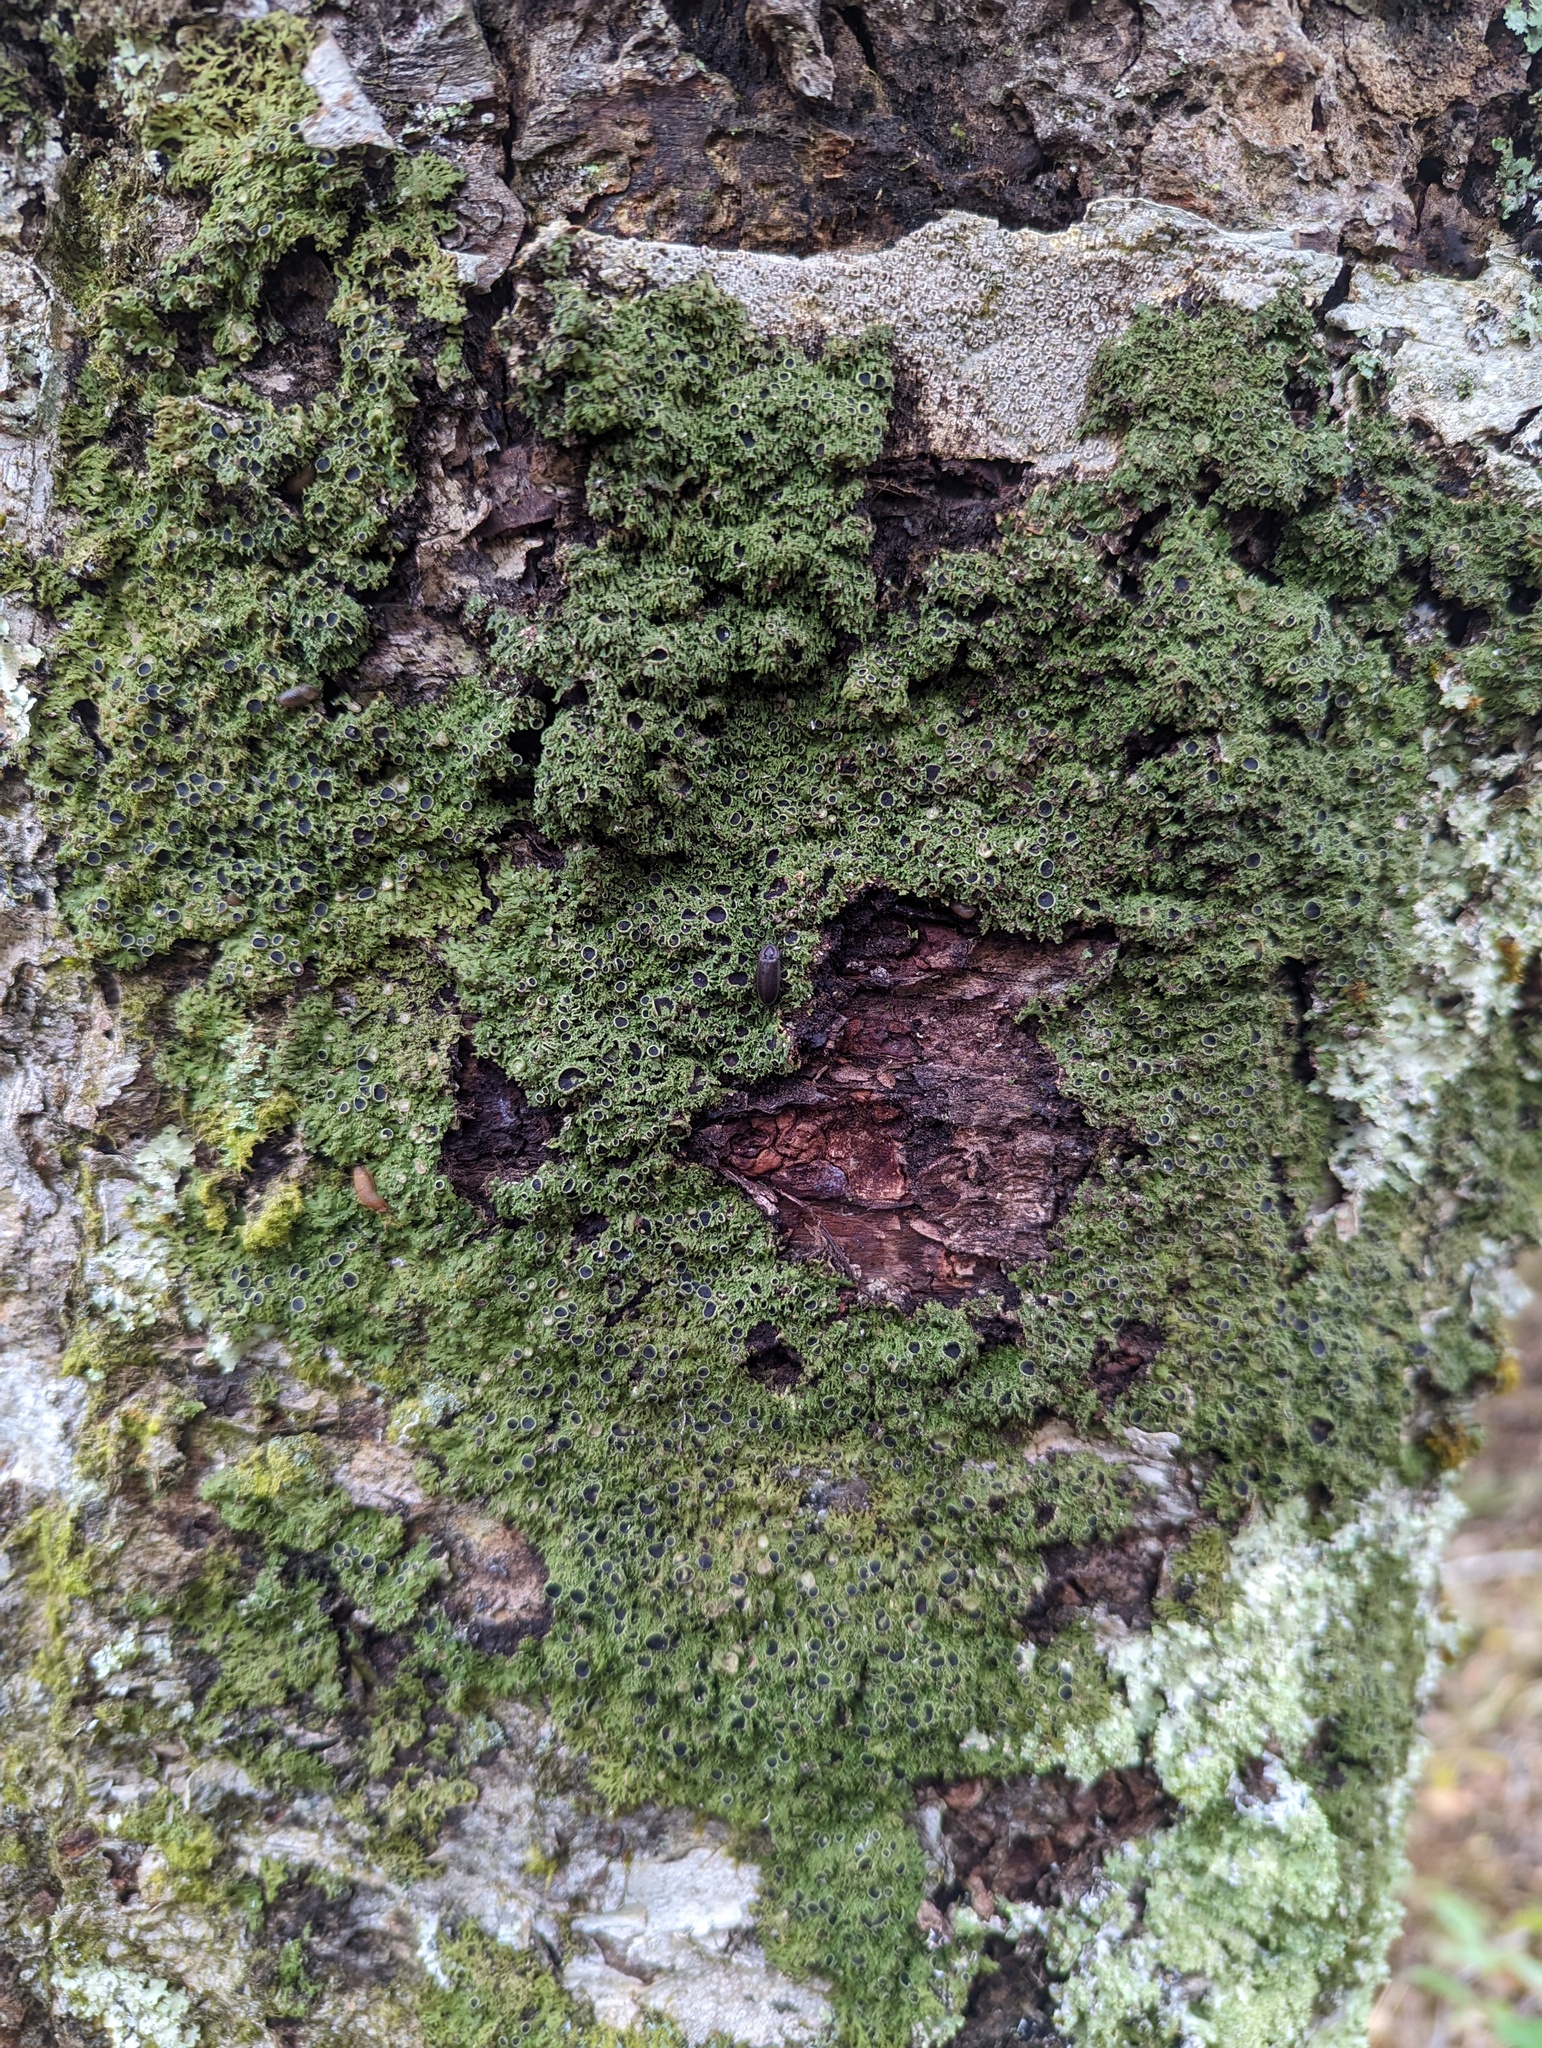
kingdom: Fungi
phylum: Ascomycota
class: Lecanoromycetes
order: Caliciales
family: Physciaceae
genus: Kurokawia
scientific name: Kurokawia palmulata
